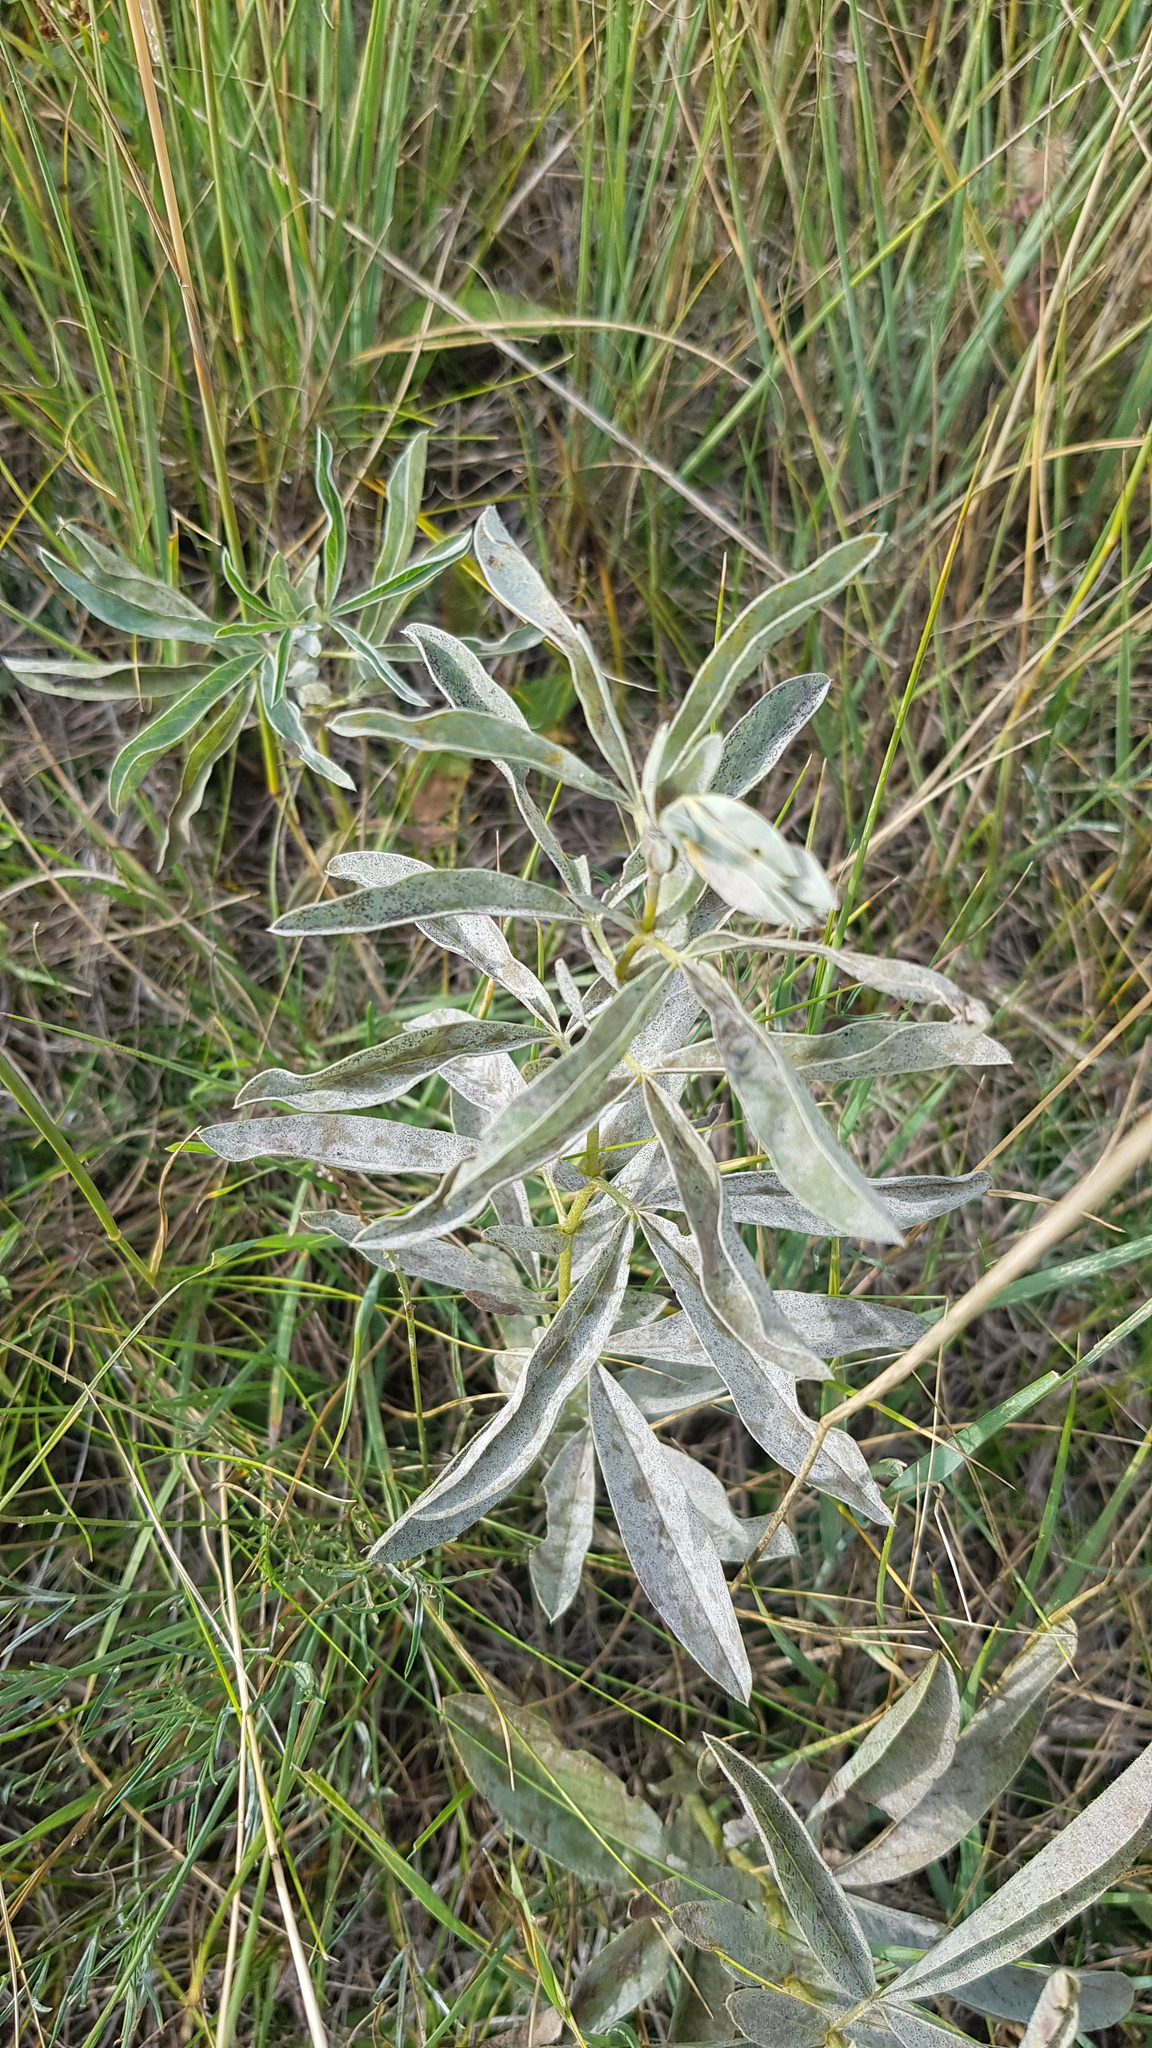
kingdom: Plantae
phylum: Tracheophyta
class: Magnoliopsida
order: Fabales
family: Fabaceae
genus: Thermopsis
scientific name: Thermopsis lanceolata
